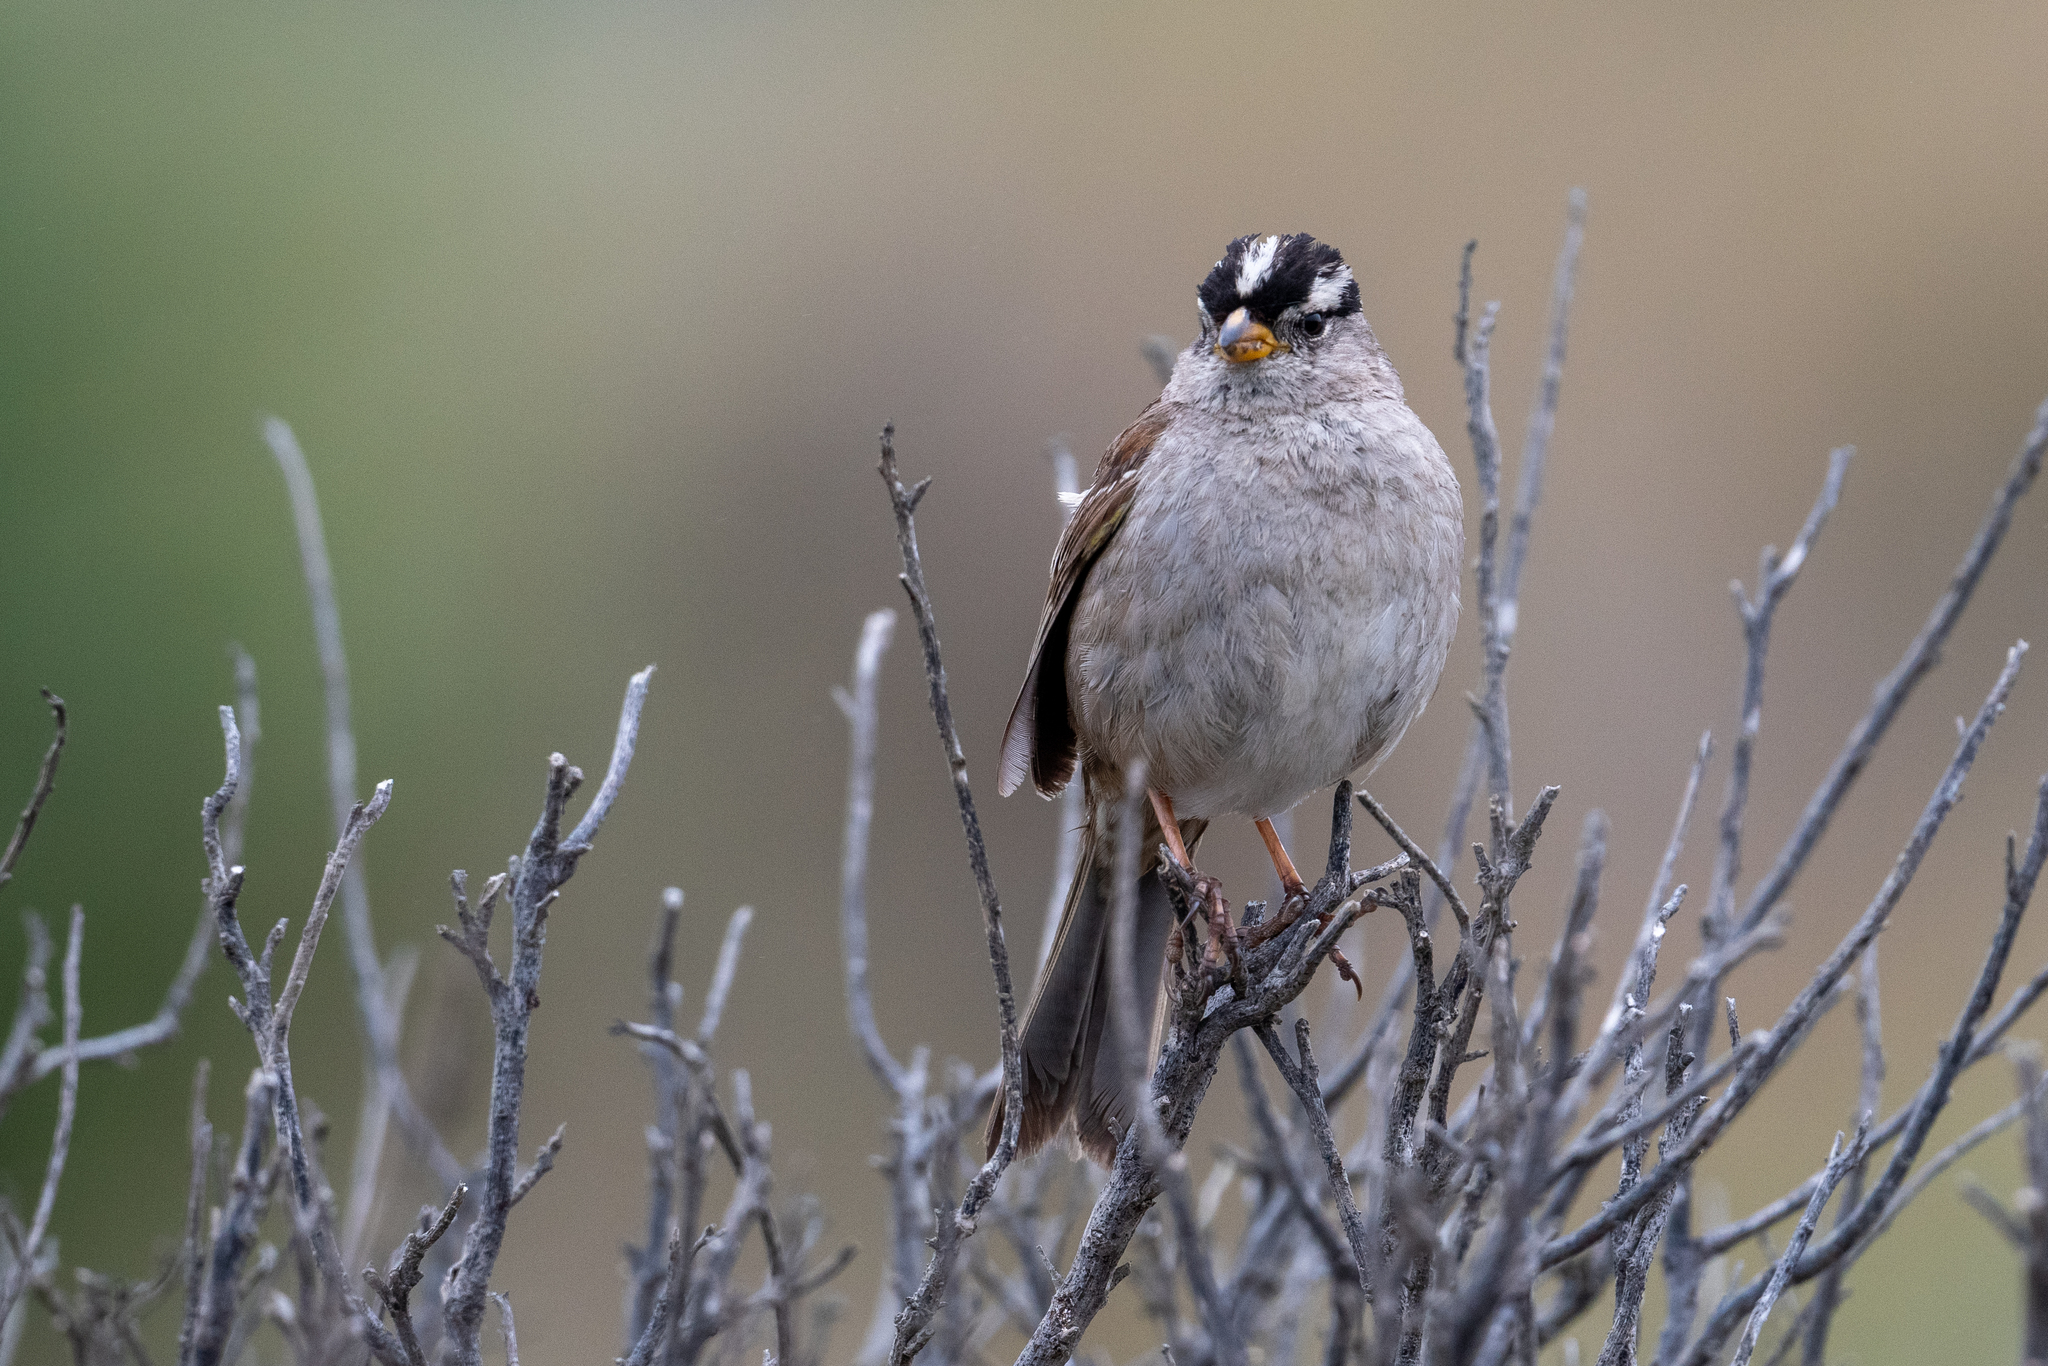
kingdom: Animalia
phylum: Chordata
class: Aves
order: Passeriformes
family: Passerellidae
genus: Zonotrichia
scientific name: Zonotrichia leucophrys
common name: White-crowned sparrow
